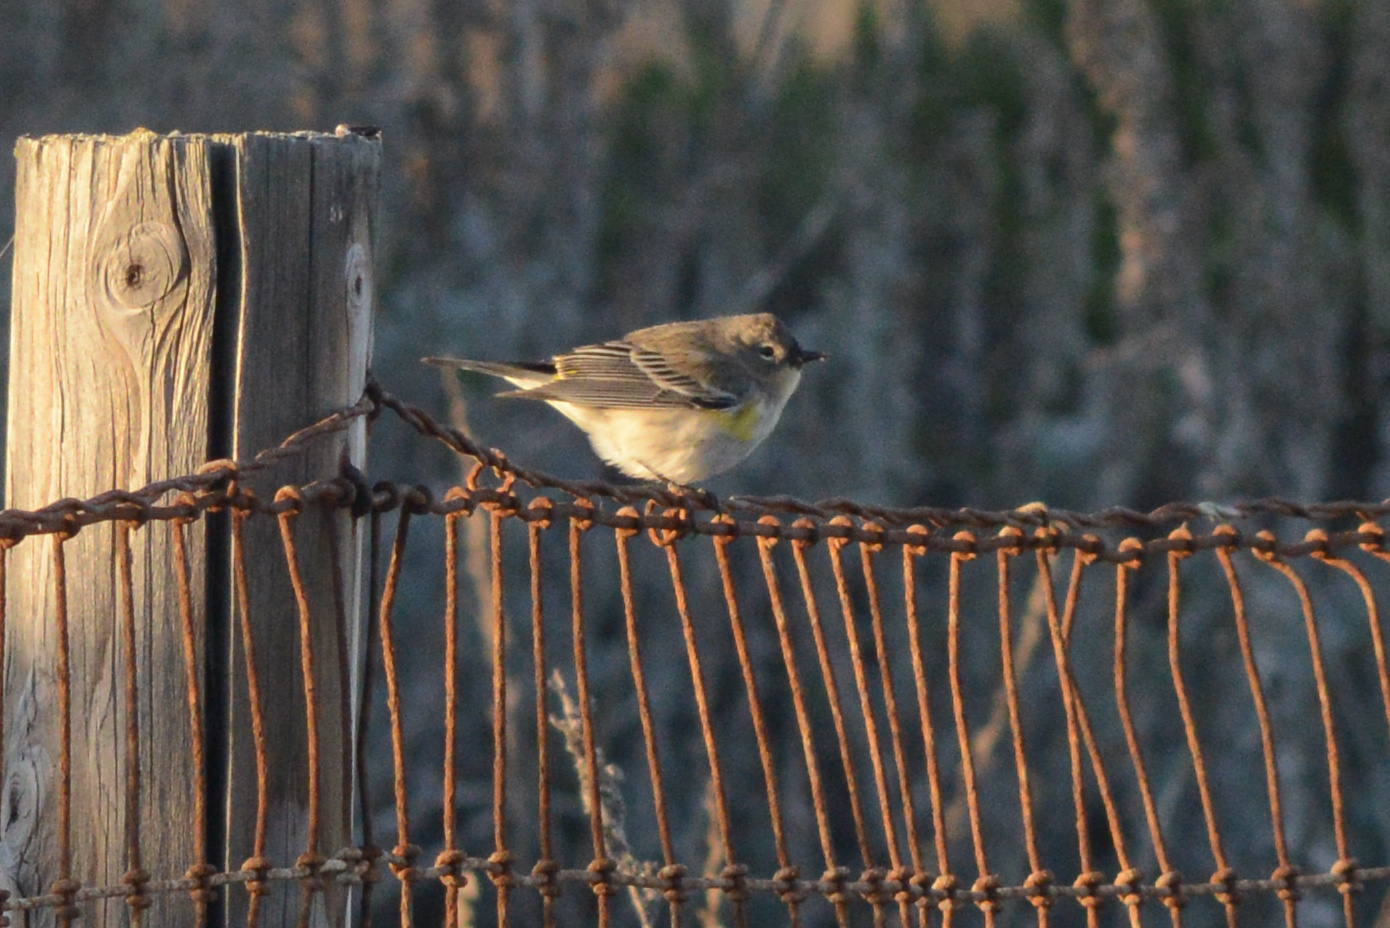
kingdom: Animalia
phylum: Chordata
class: Aves
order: Passeriformes
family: Parulidae
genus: Setophaga
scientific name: Setophaga coronata
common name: Myrtle warbler
